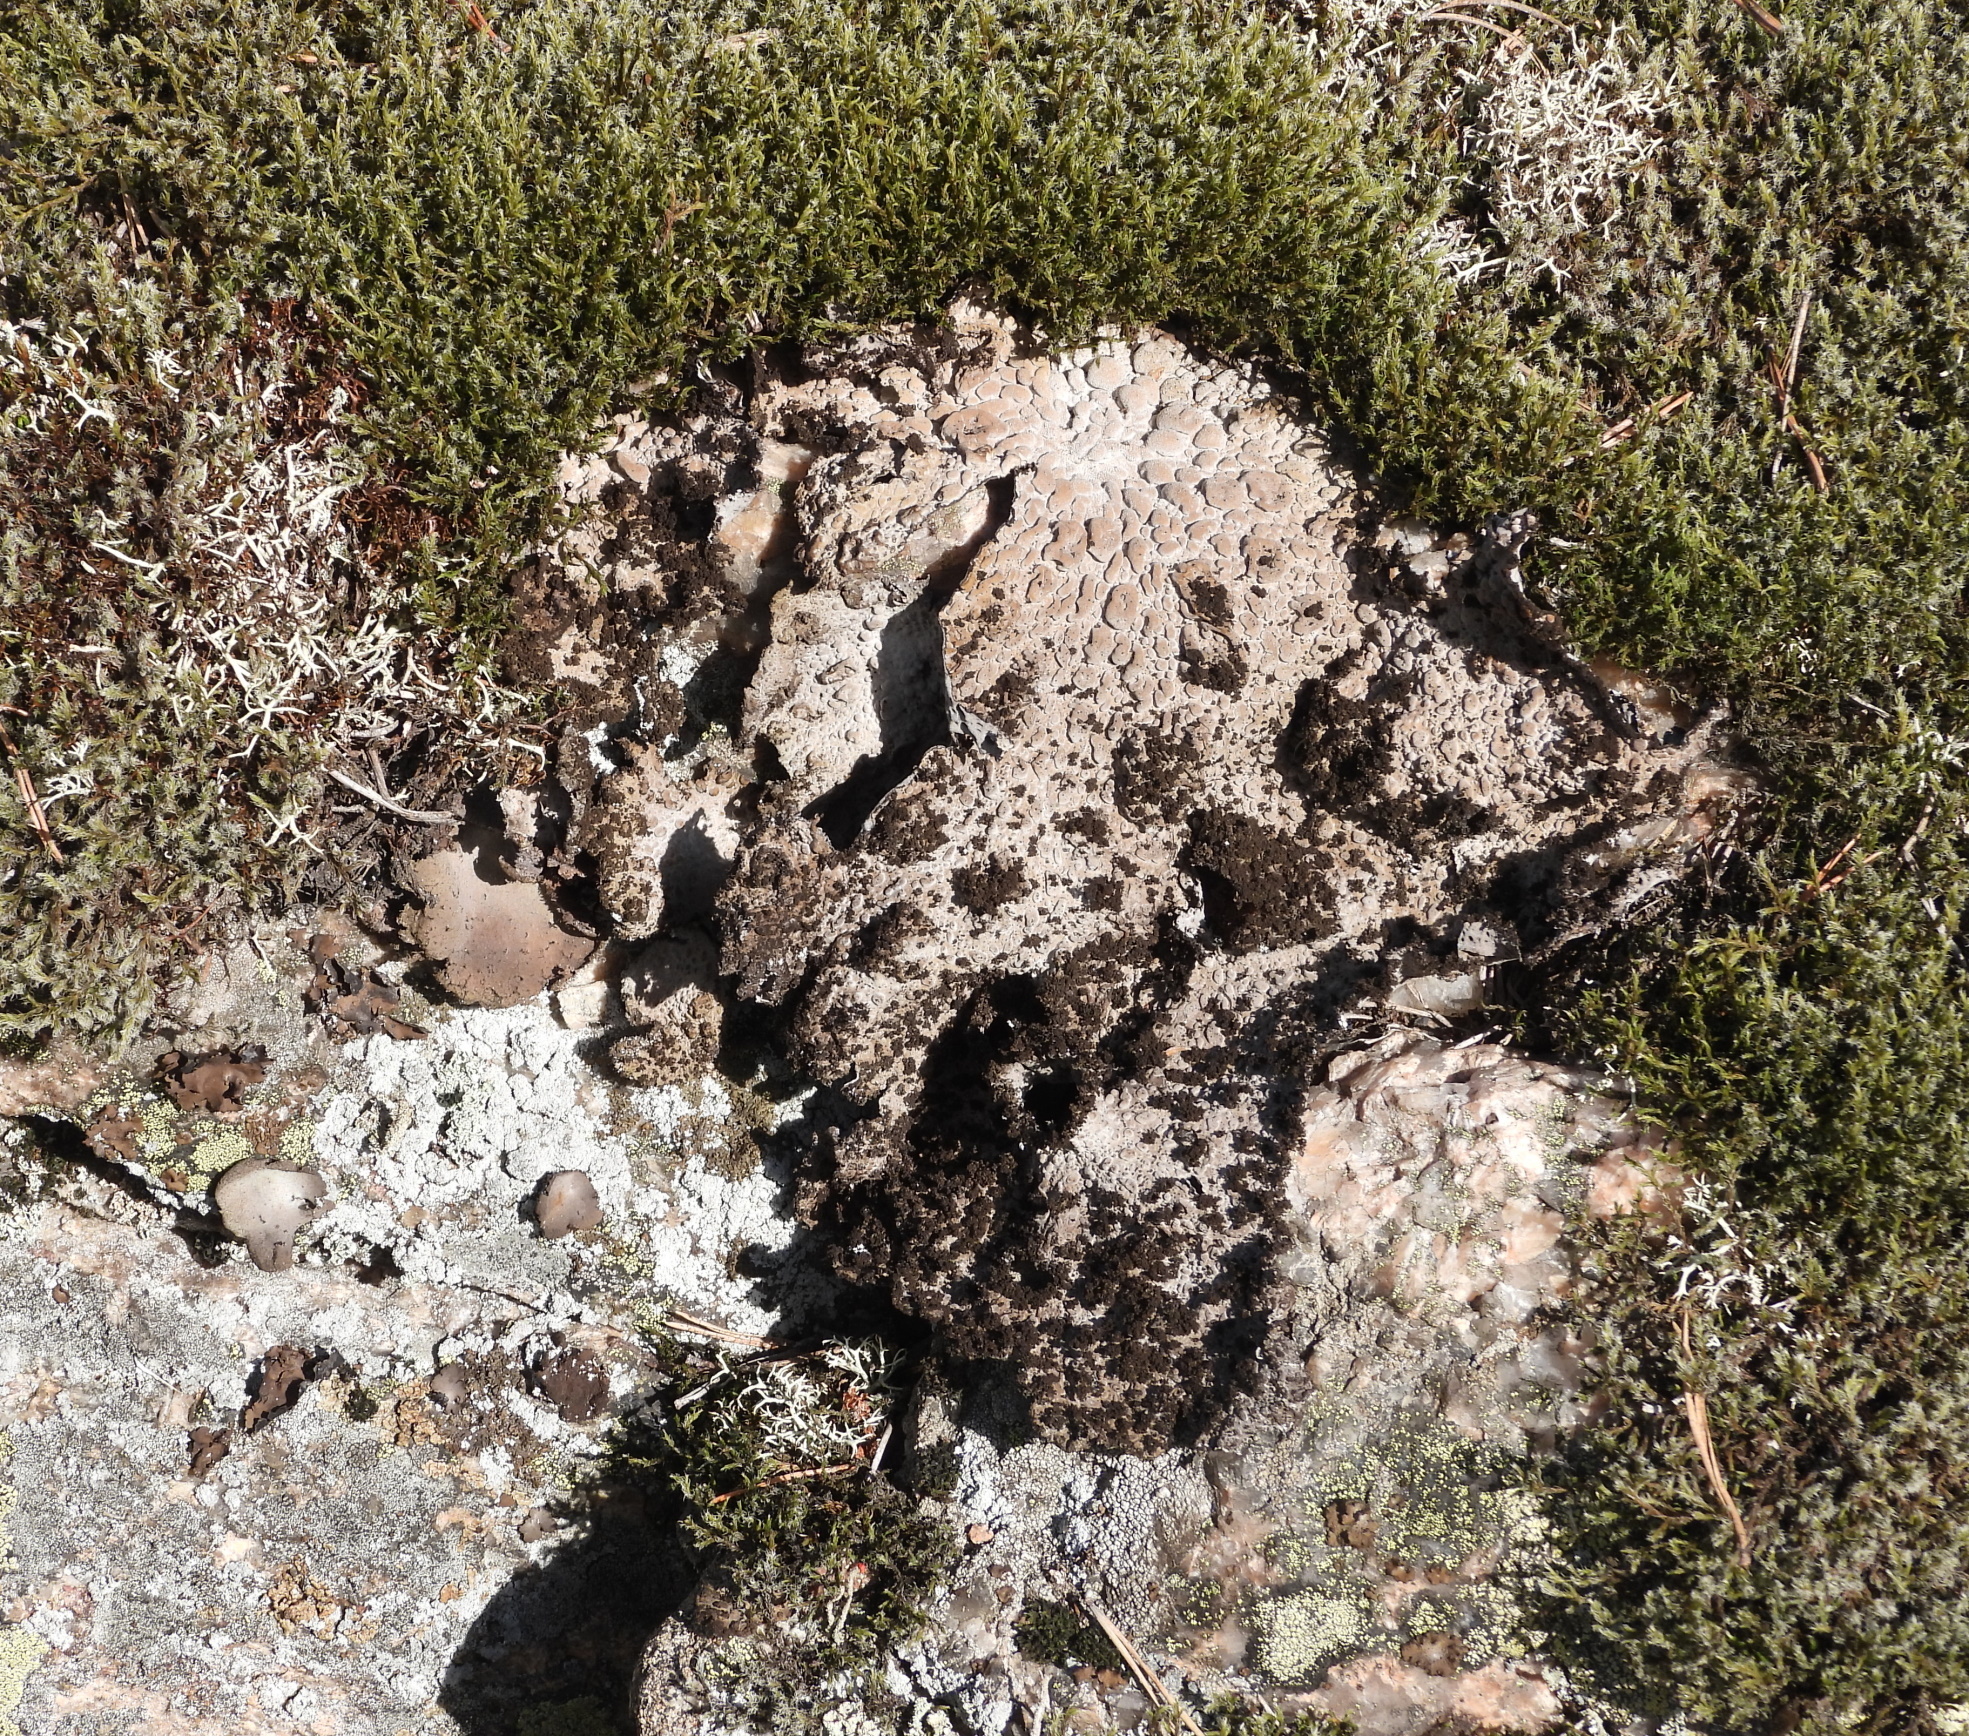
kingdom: Fungi
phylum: Ascomycota
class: Lecanoromycetes
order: Umbilicariales
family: Umbilicariaceae
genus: Lasallia
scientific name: Lasallia pustulata
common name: Blistered toadskin lichen
